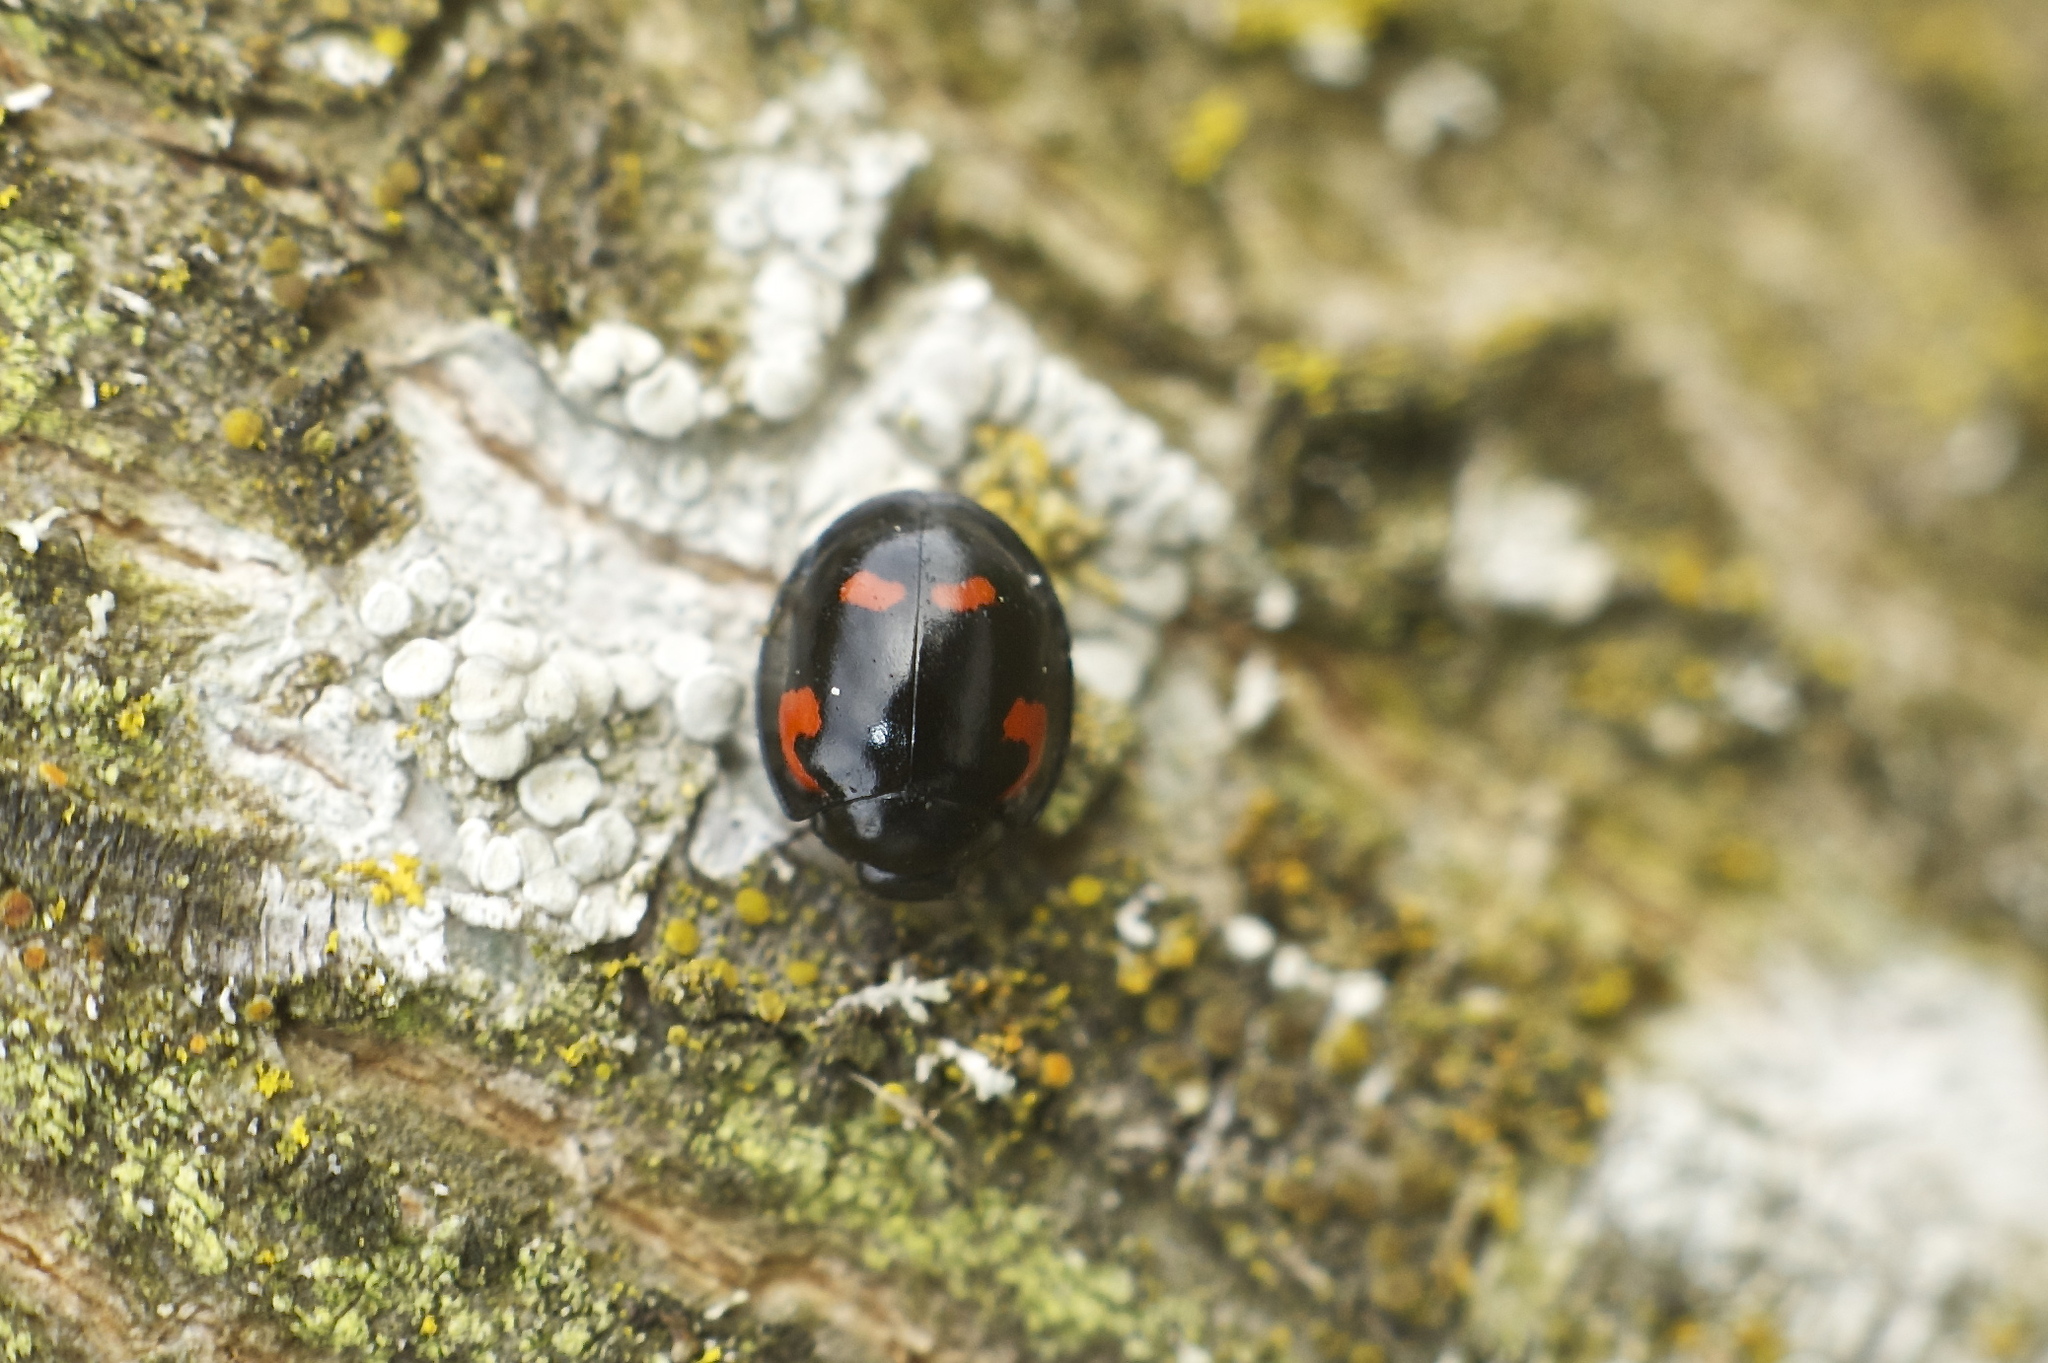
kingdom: Animalia
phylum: Arthropoda
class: Insecta
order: Coleoptera
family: Coccinellidae
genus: Brumus
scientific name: Brumus quadripustulatus
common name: Ladybird beetle
